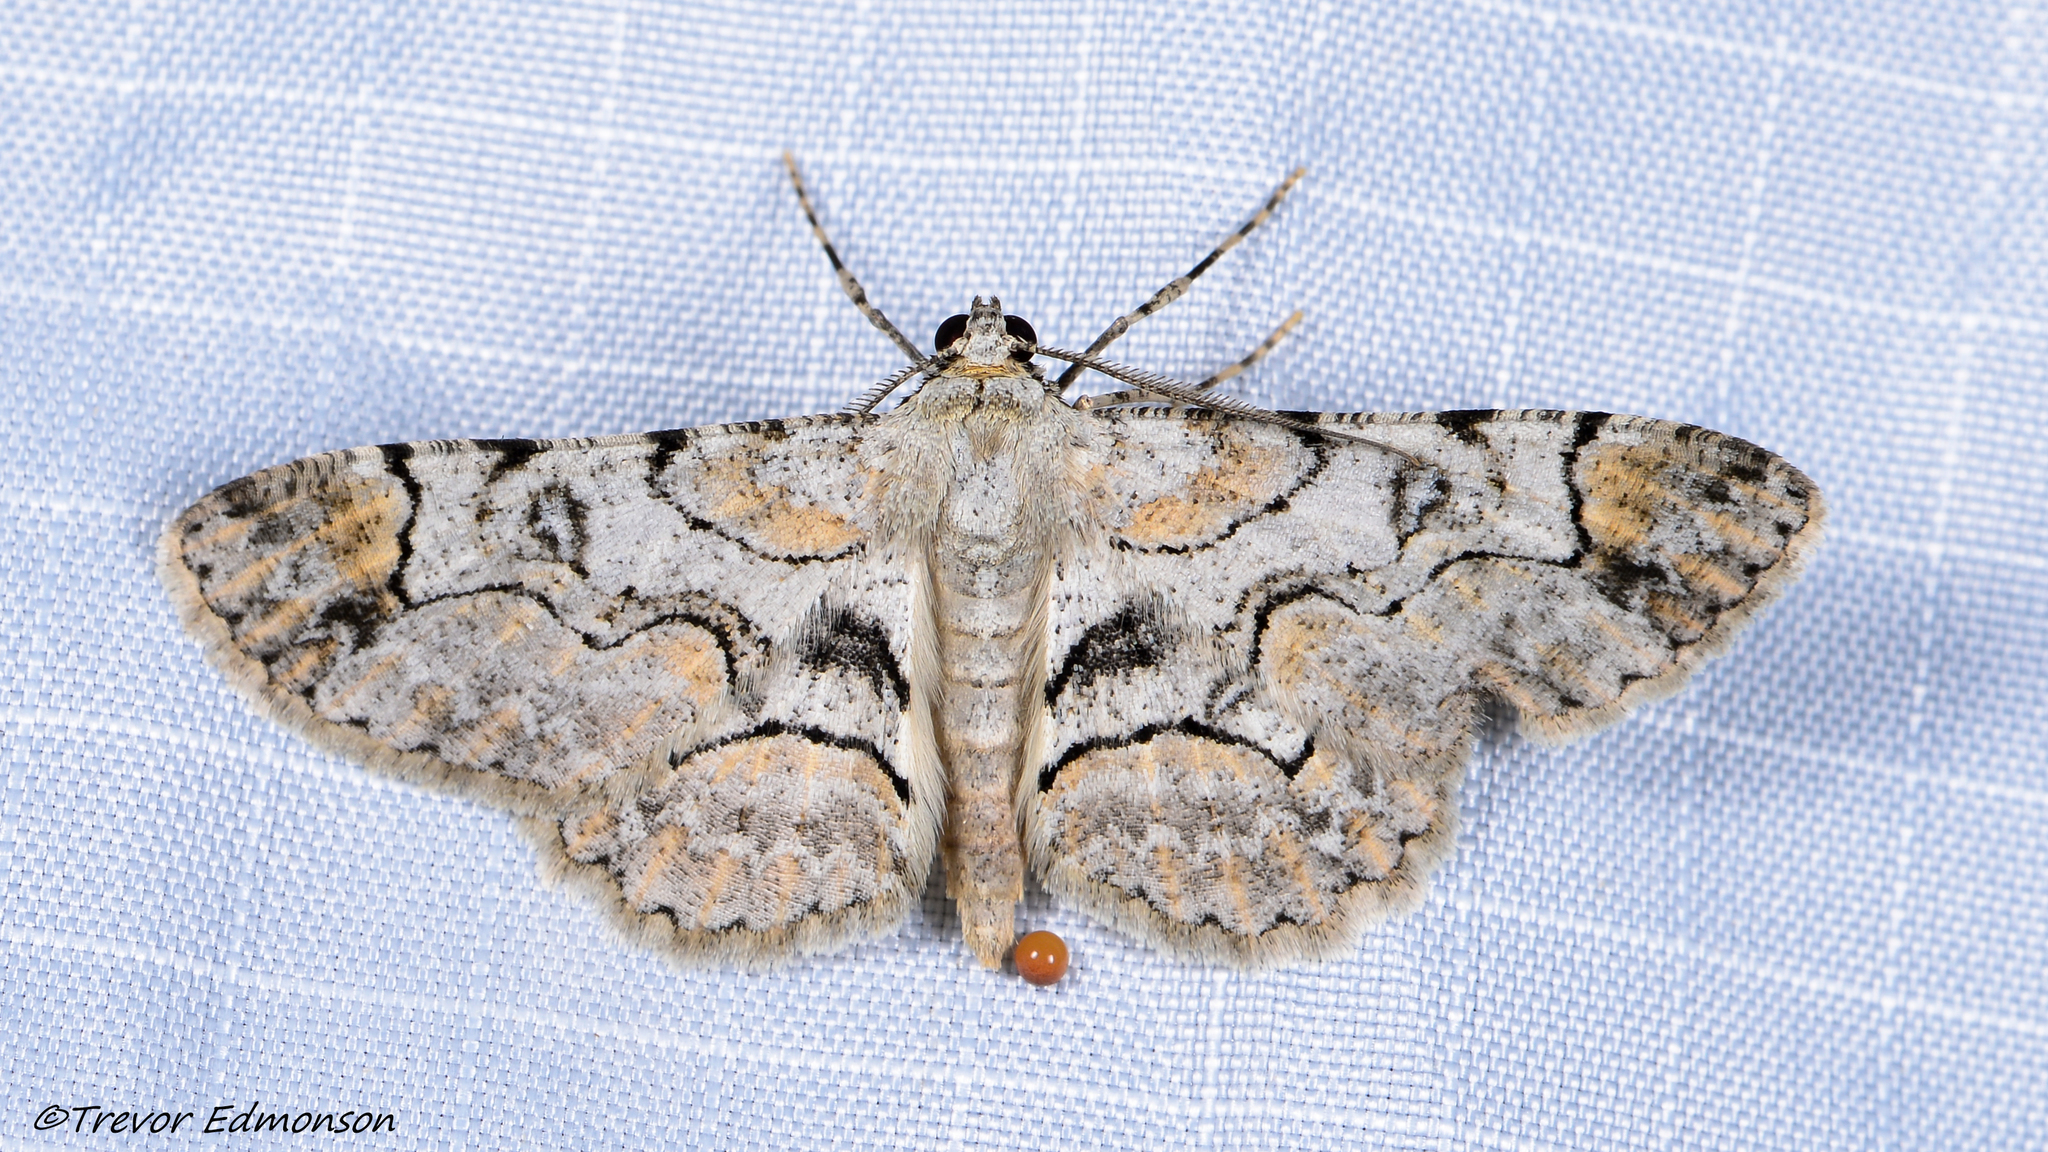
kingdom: Animalia
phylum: Arthropoda
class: Insecta
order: Lepidoptera
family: Geometridae
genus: Iridopsis
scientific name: Iridopsis larvaria
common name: Bent-line gray
